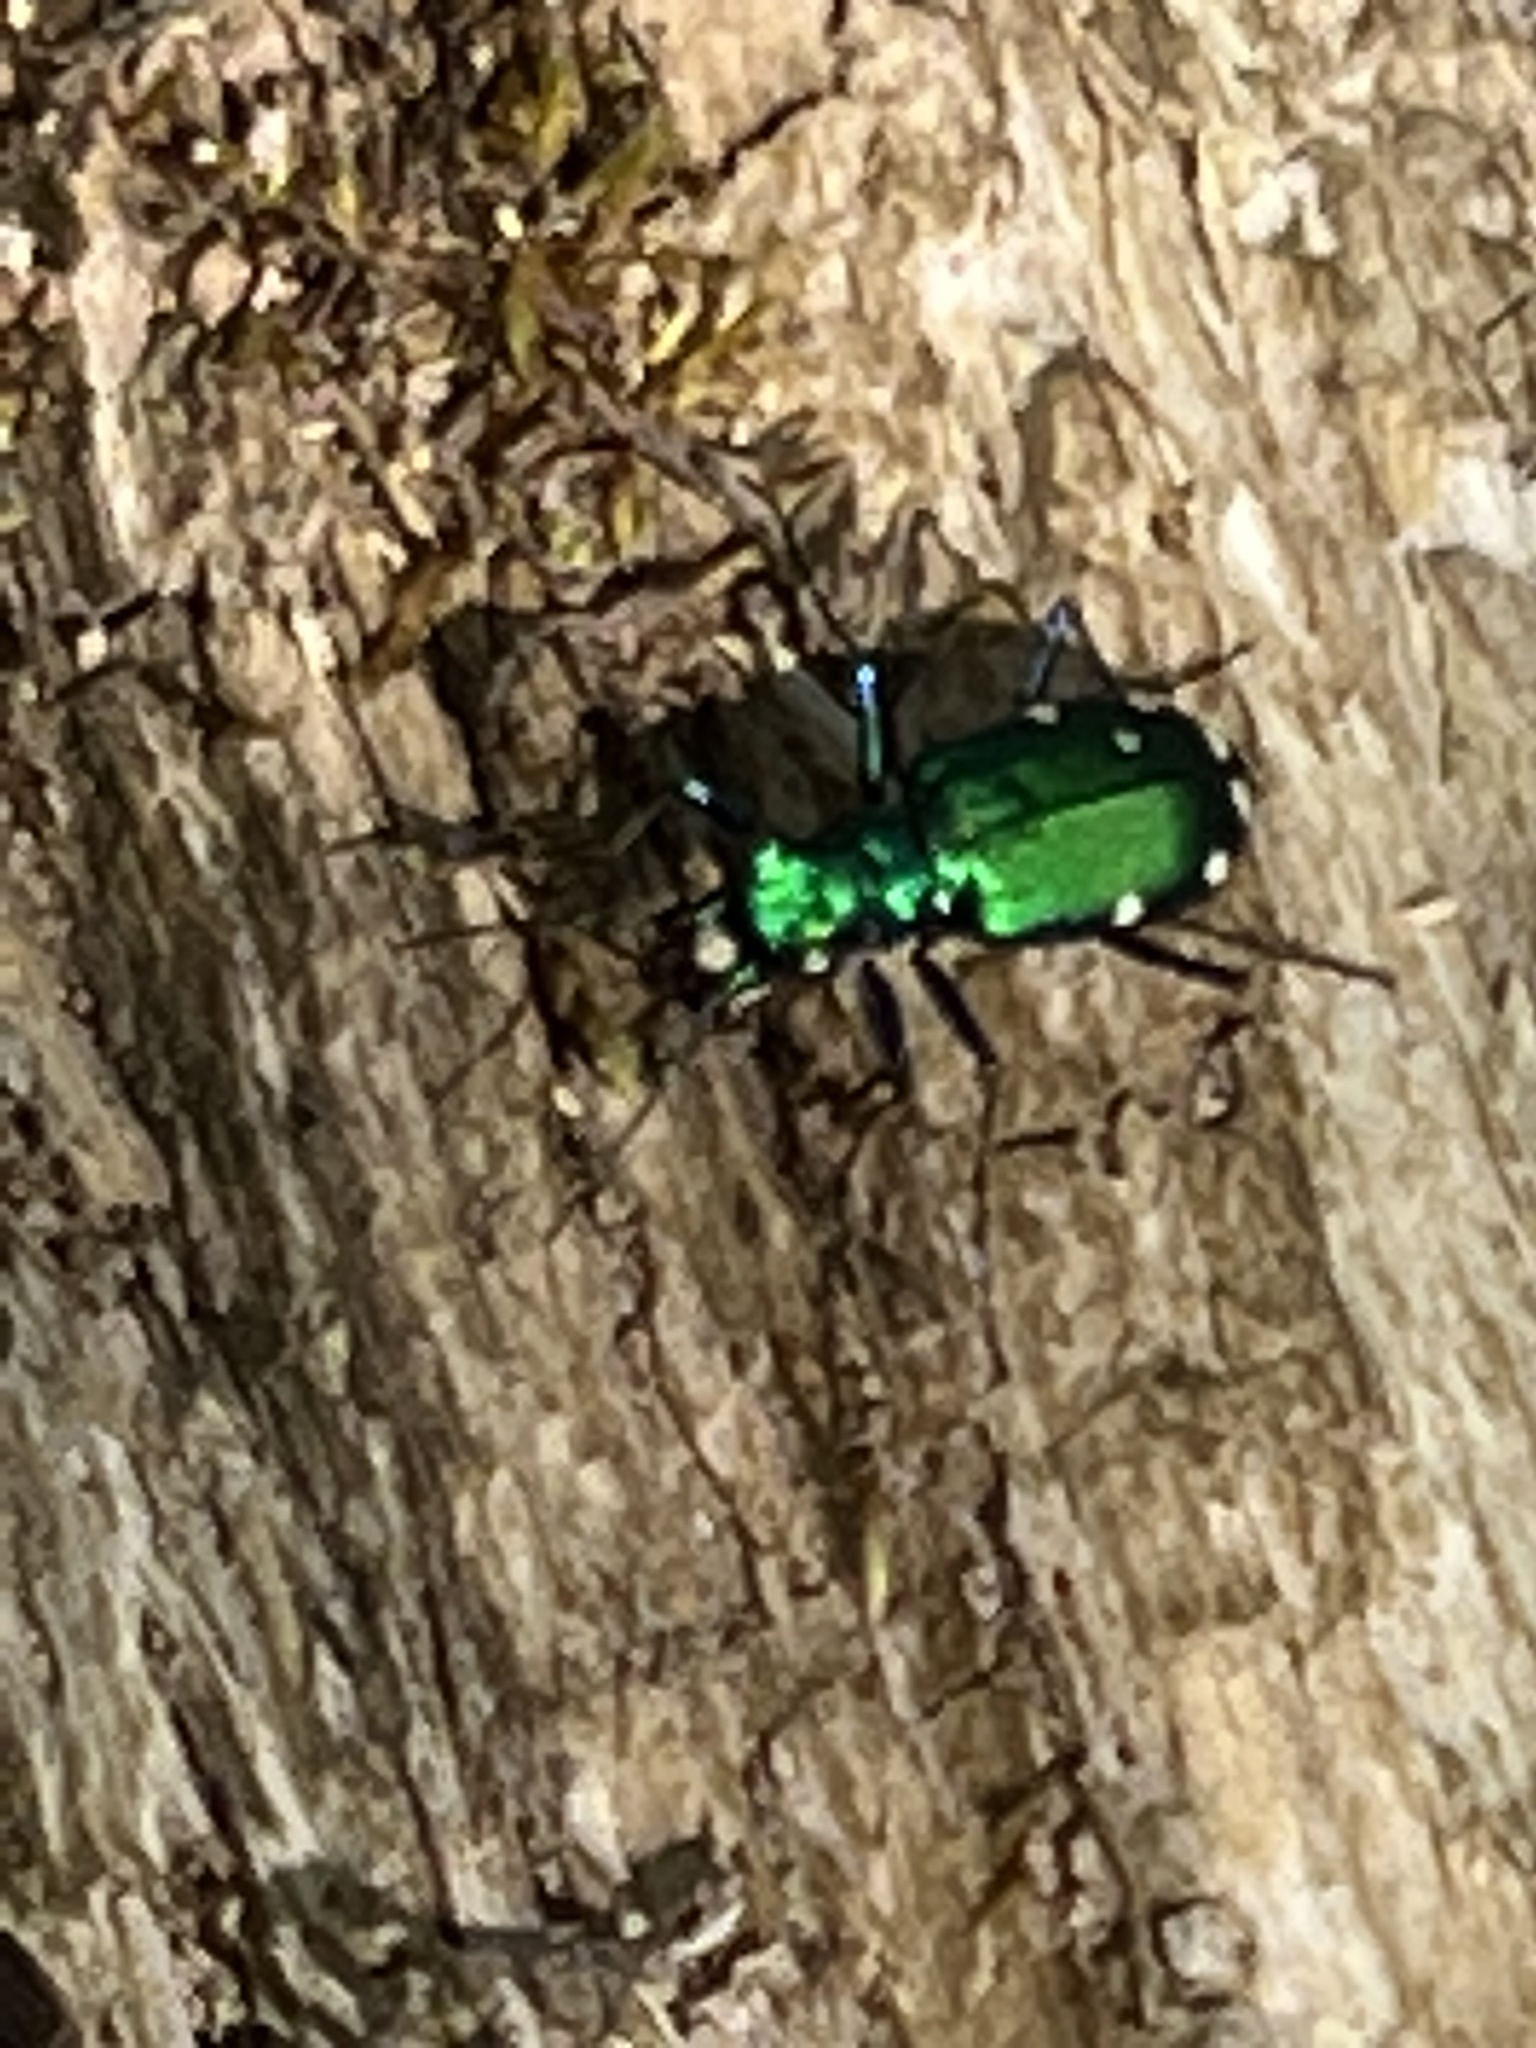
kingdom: Animalia
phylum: Arthropoda
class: Insecta
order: Coleoptera
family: Carabidae
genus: Cicindela
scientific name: Cicindela sexguttata
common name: Six-spotted tiger beetle
